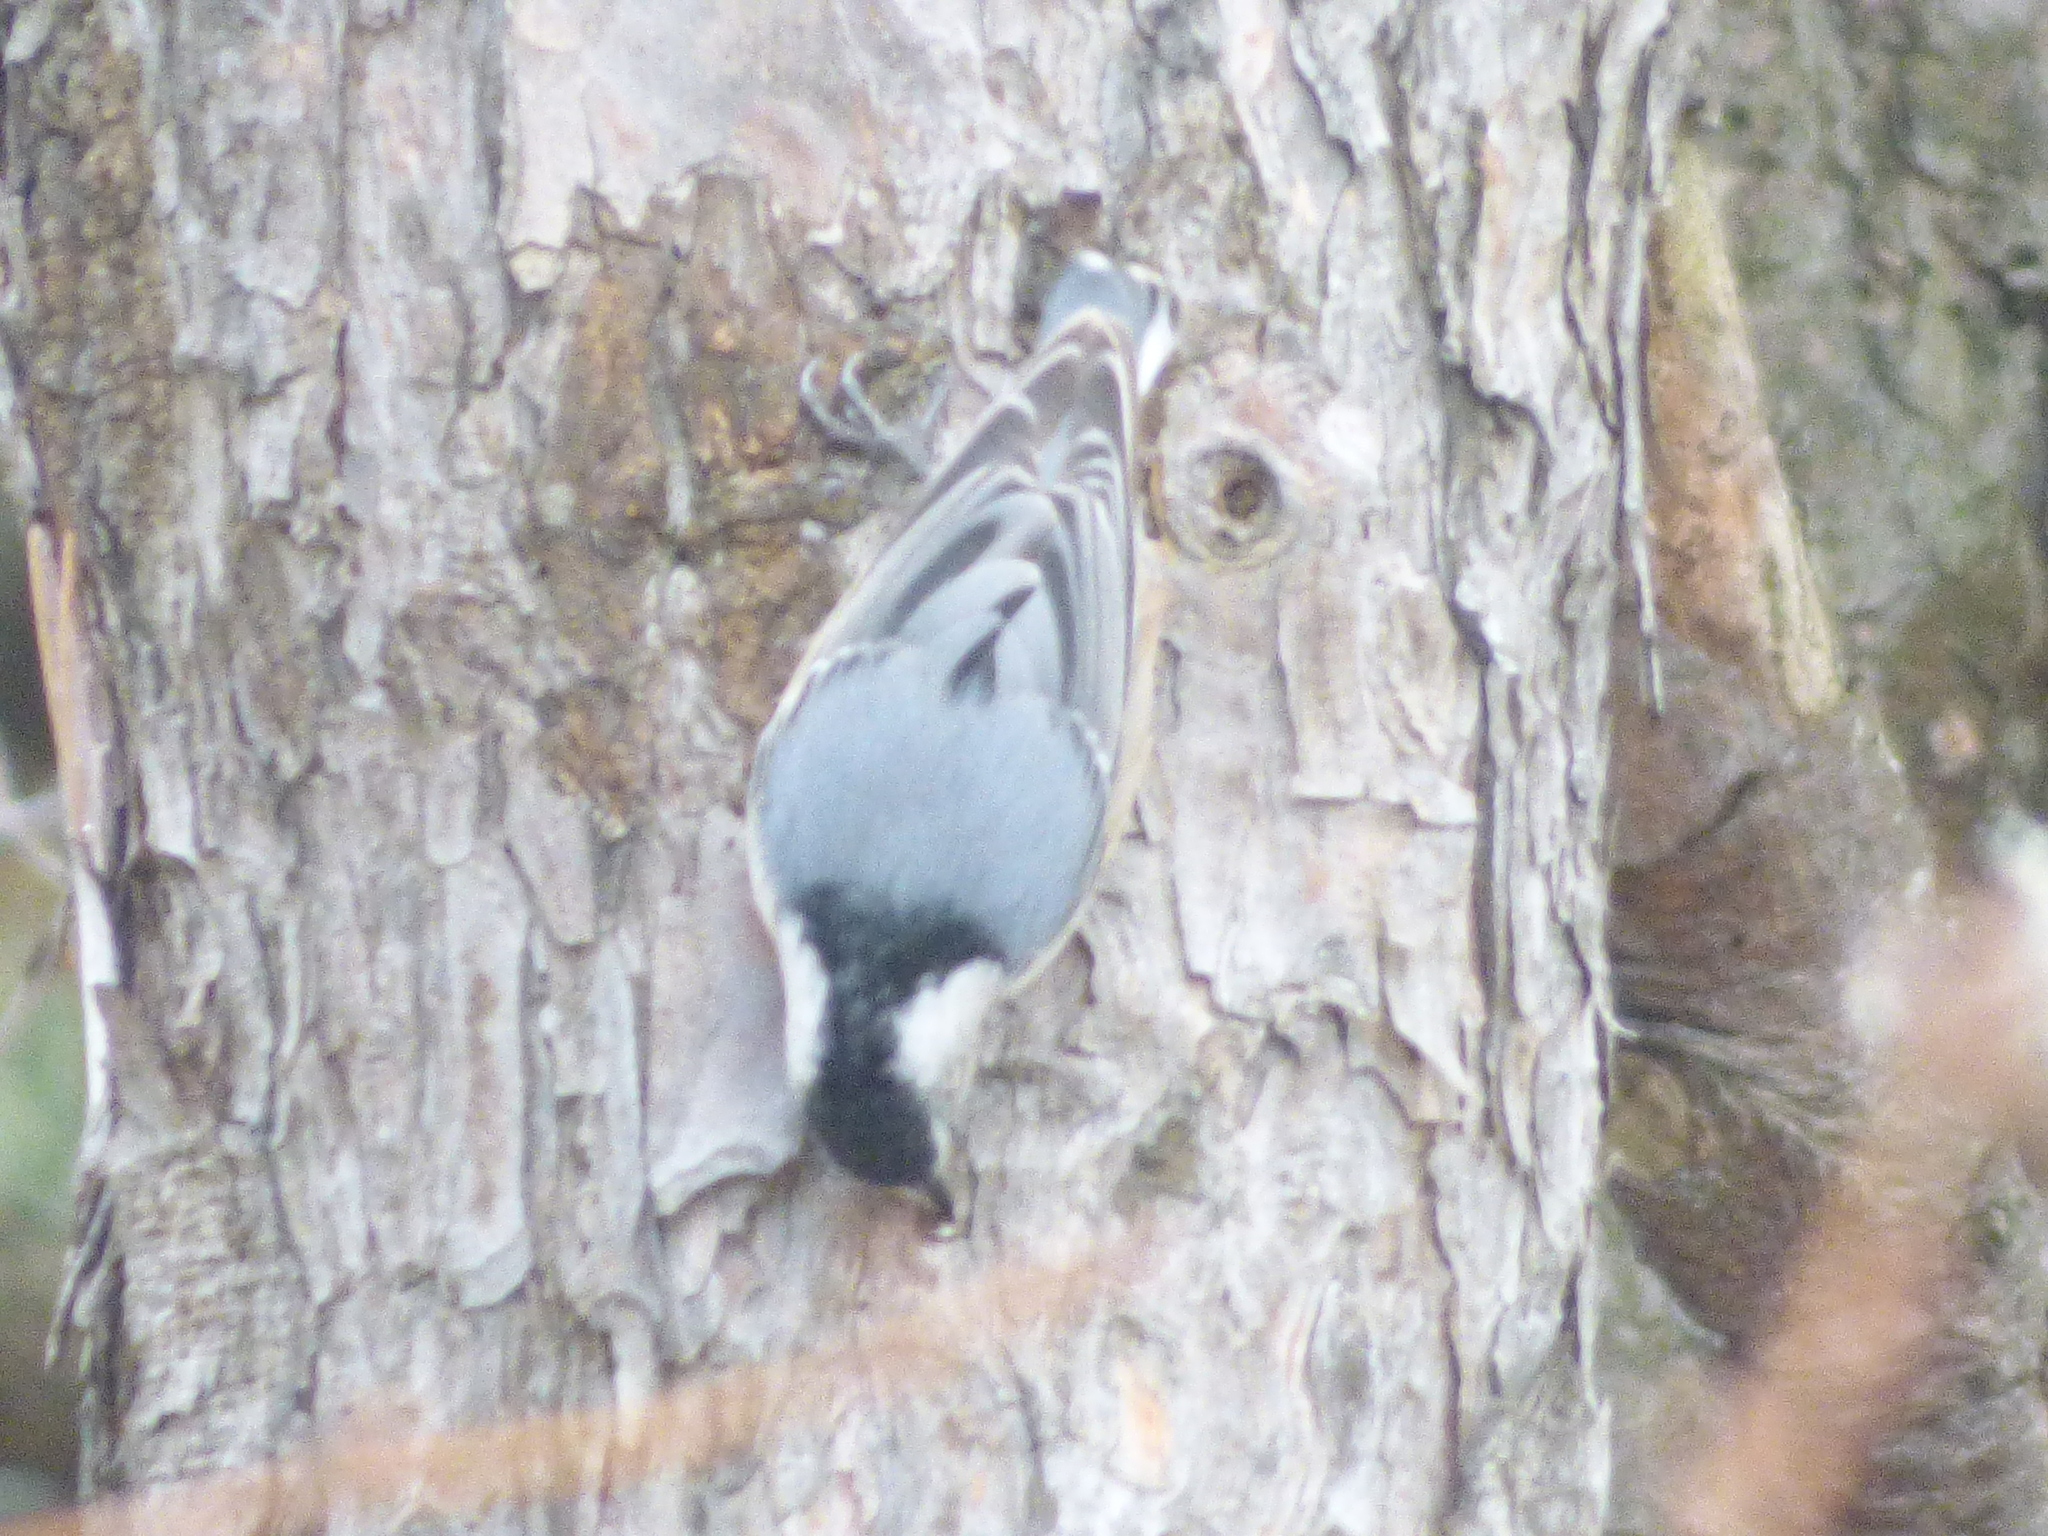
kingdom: Animalia
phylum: Chordata
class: Aves
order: Passeriformes
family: Sittidae
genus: Sitta
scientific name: Sitta carolinensis
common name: White-breasted nuthatch
